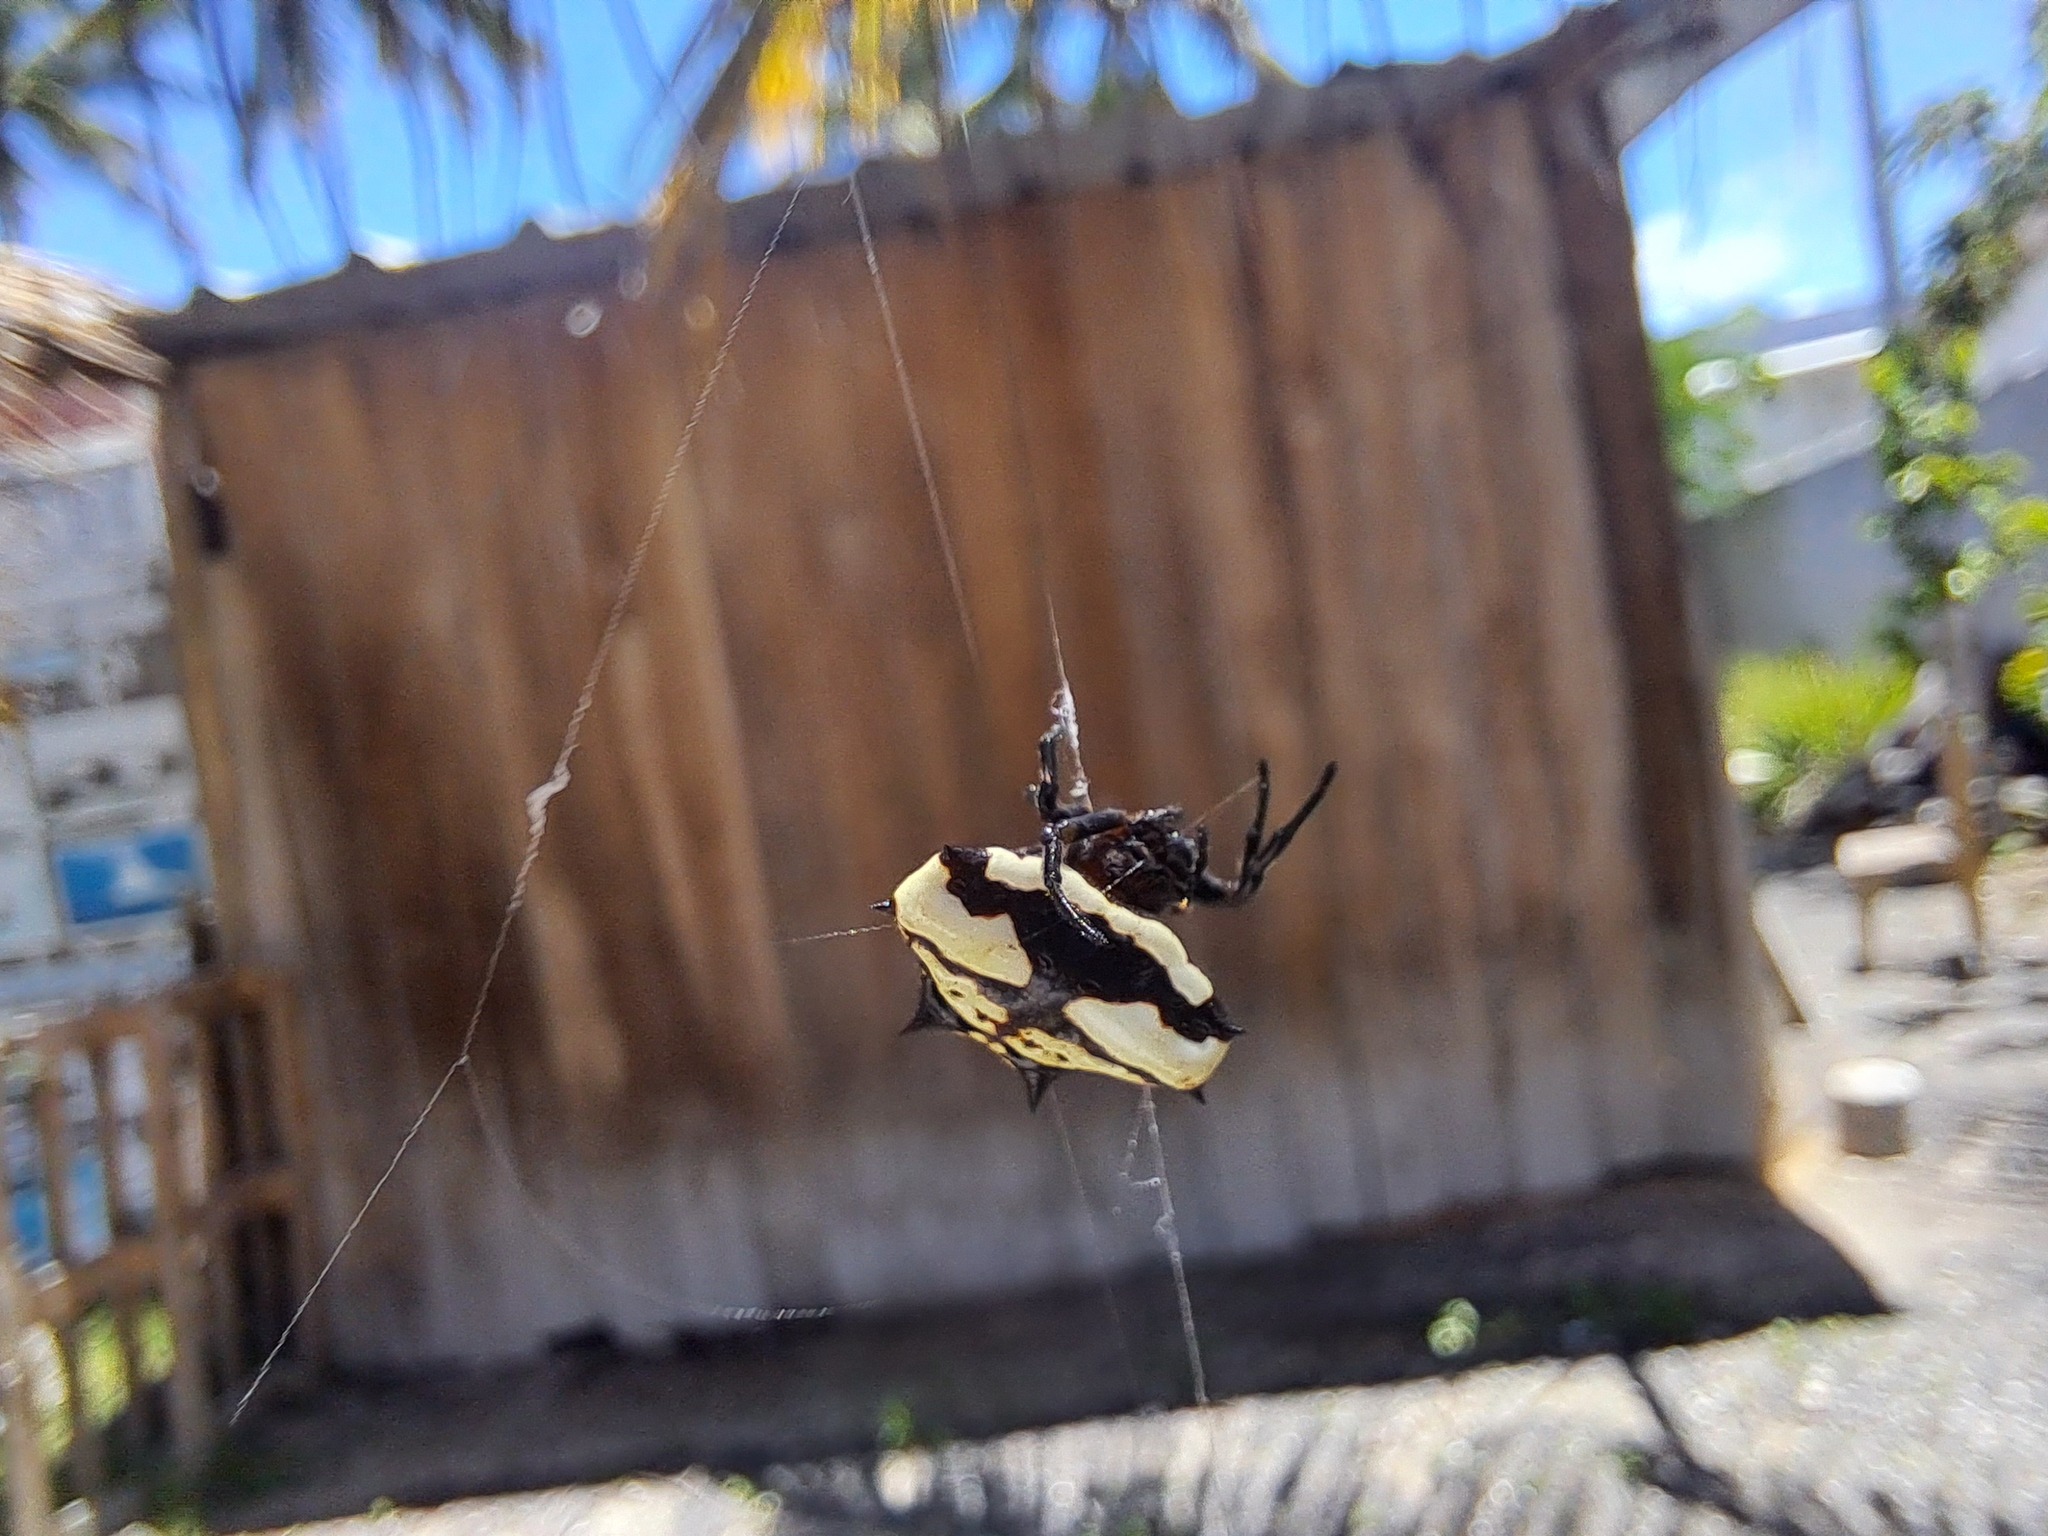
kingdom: Animalia
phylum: Arthropoda
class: Arachnida
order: Araneae
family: Araneidae
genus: Gasteracantha
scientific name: Gasteracantha cancriformis
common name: Orb weavers
